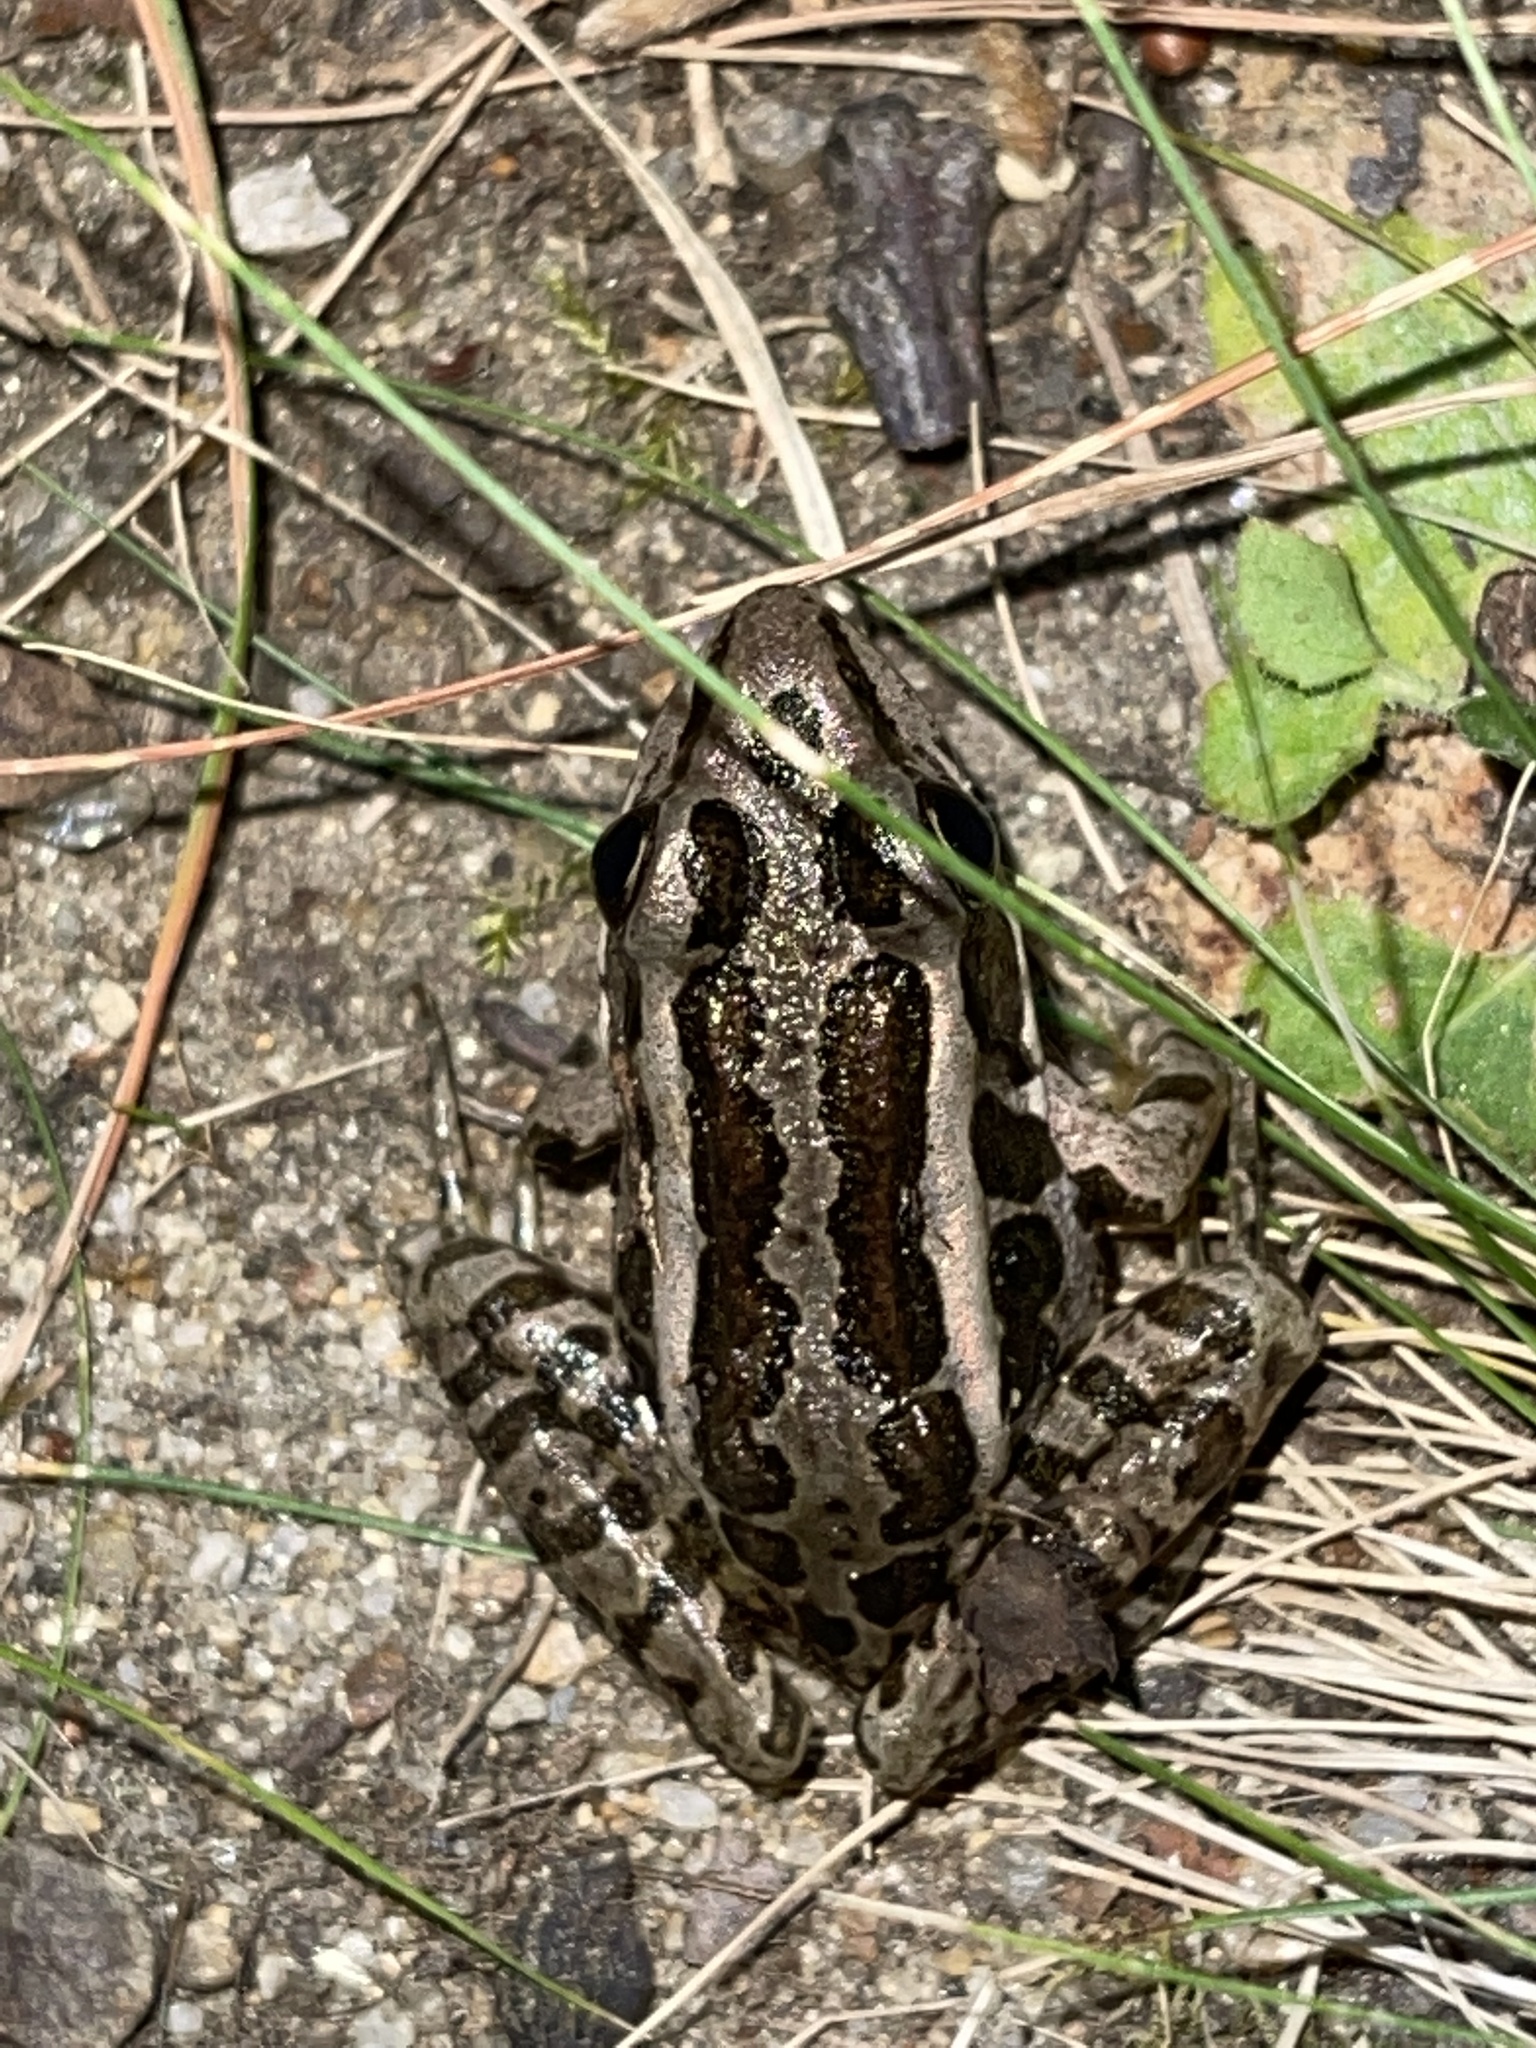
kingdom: Animalia
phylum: Chordata
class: Amphibia
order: Anura
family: Ranidae
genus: Lithobates
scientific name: Lithobates palustris
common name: Pickerel frog
